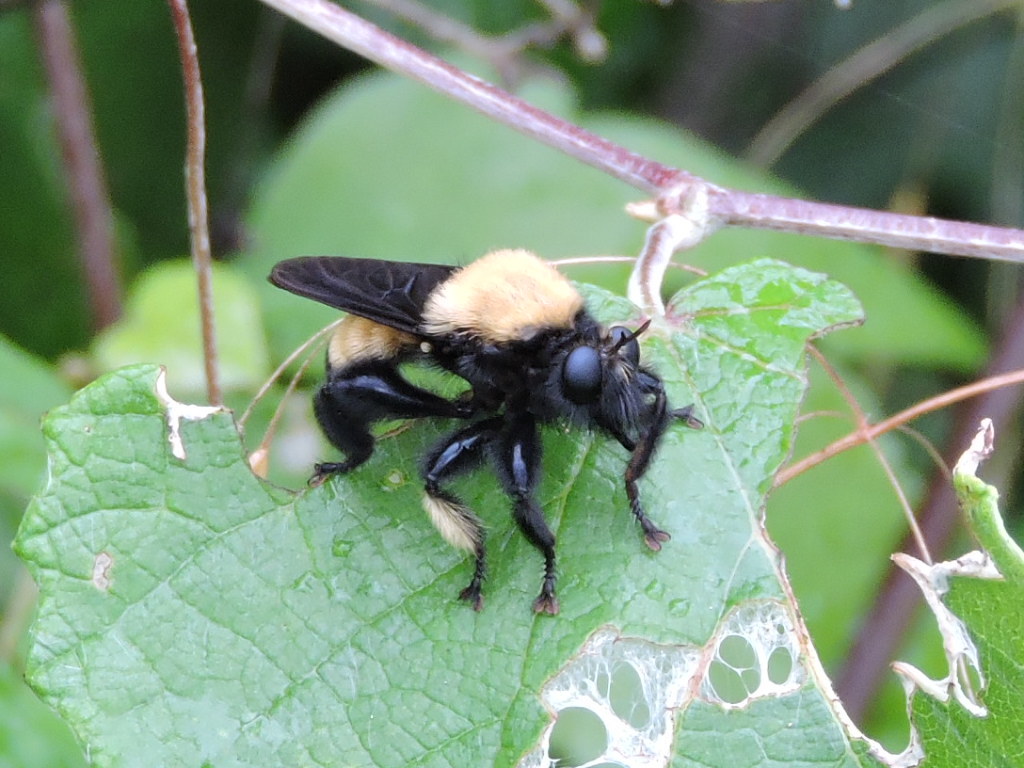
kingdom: Animalia
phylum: Arthropoda
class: Insecta
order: Diptera
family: Asilidae
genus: Laphria
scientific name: Laphria macquarti
